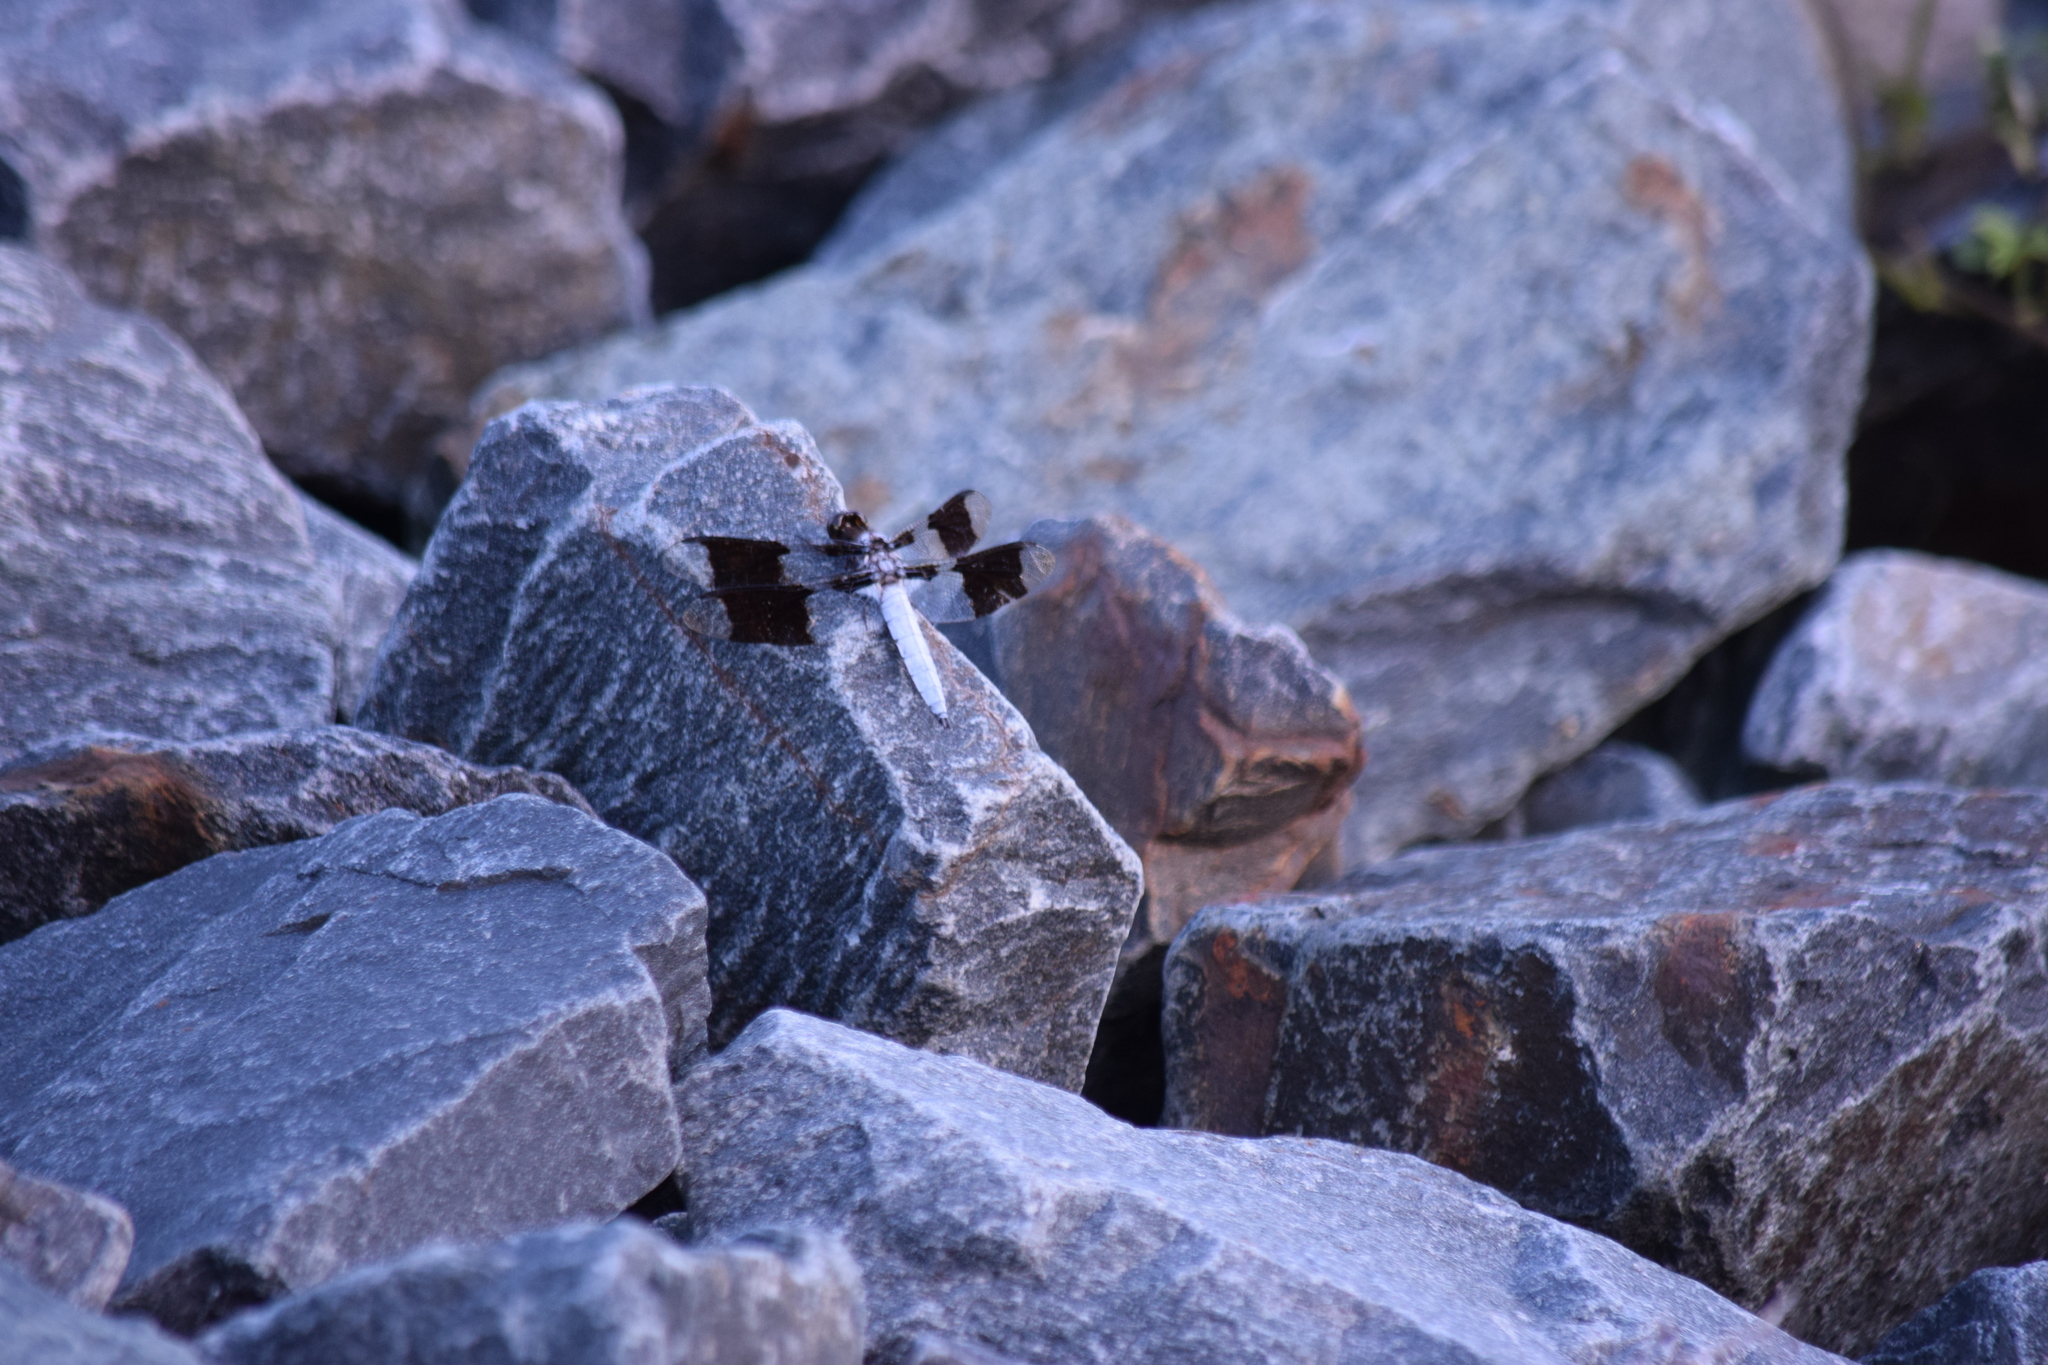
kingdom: Animalia
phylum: Arthropoda
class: Insecta
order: Odonata
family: Libellulidae
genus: Plathemis
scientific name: Plathemis lydia
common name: Common whitetail
